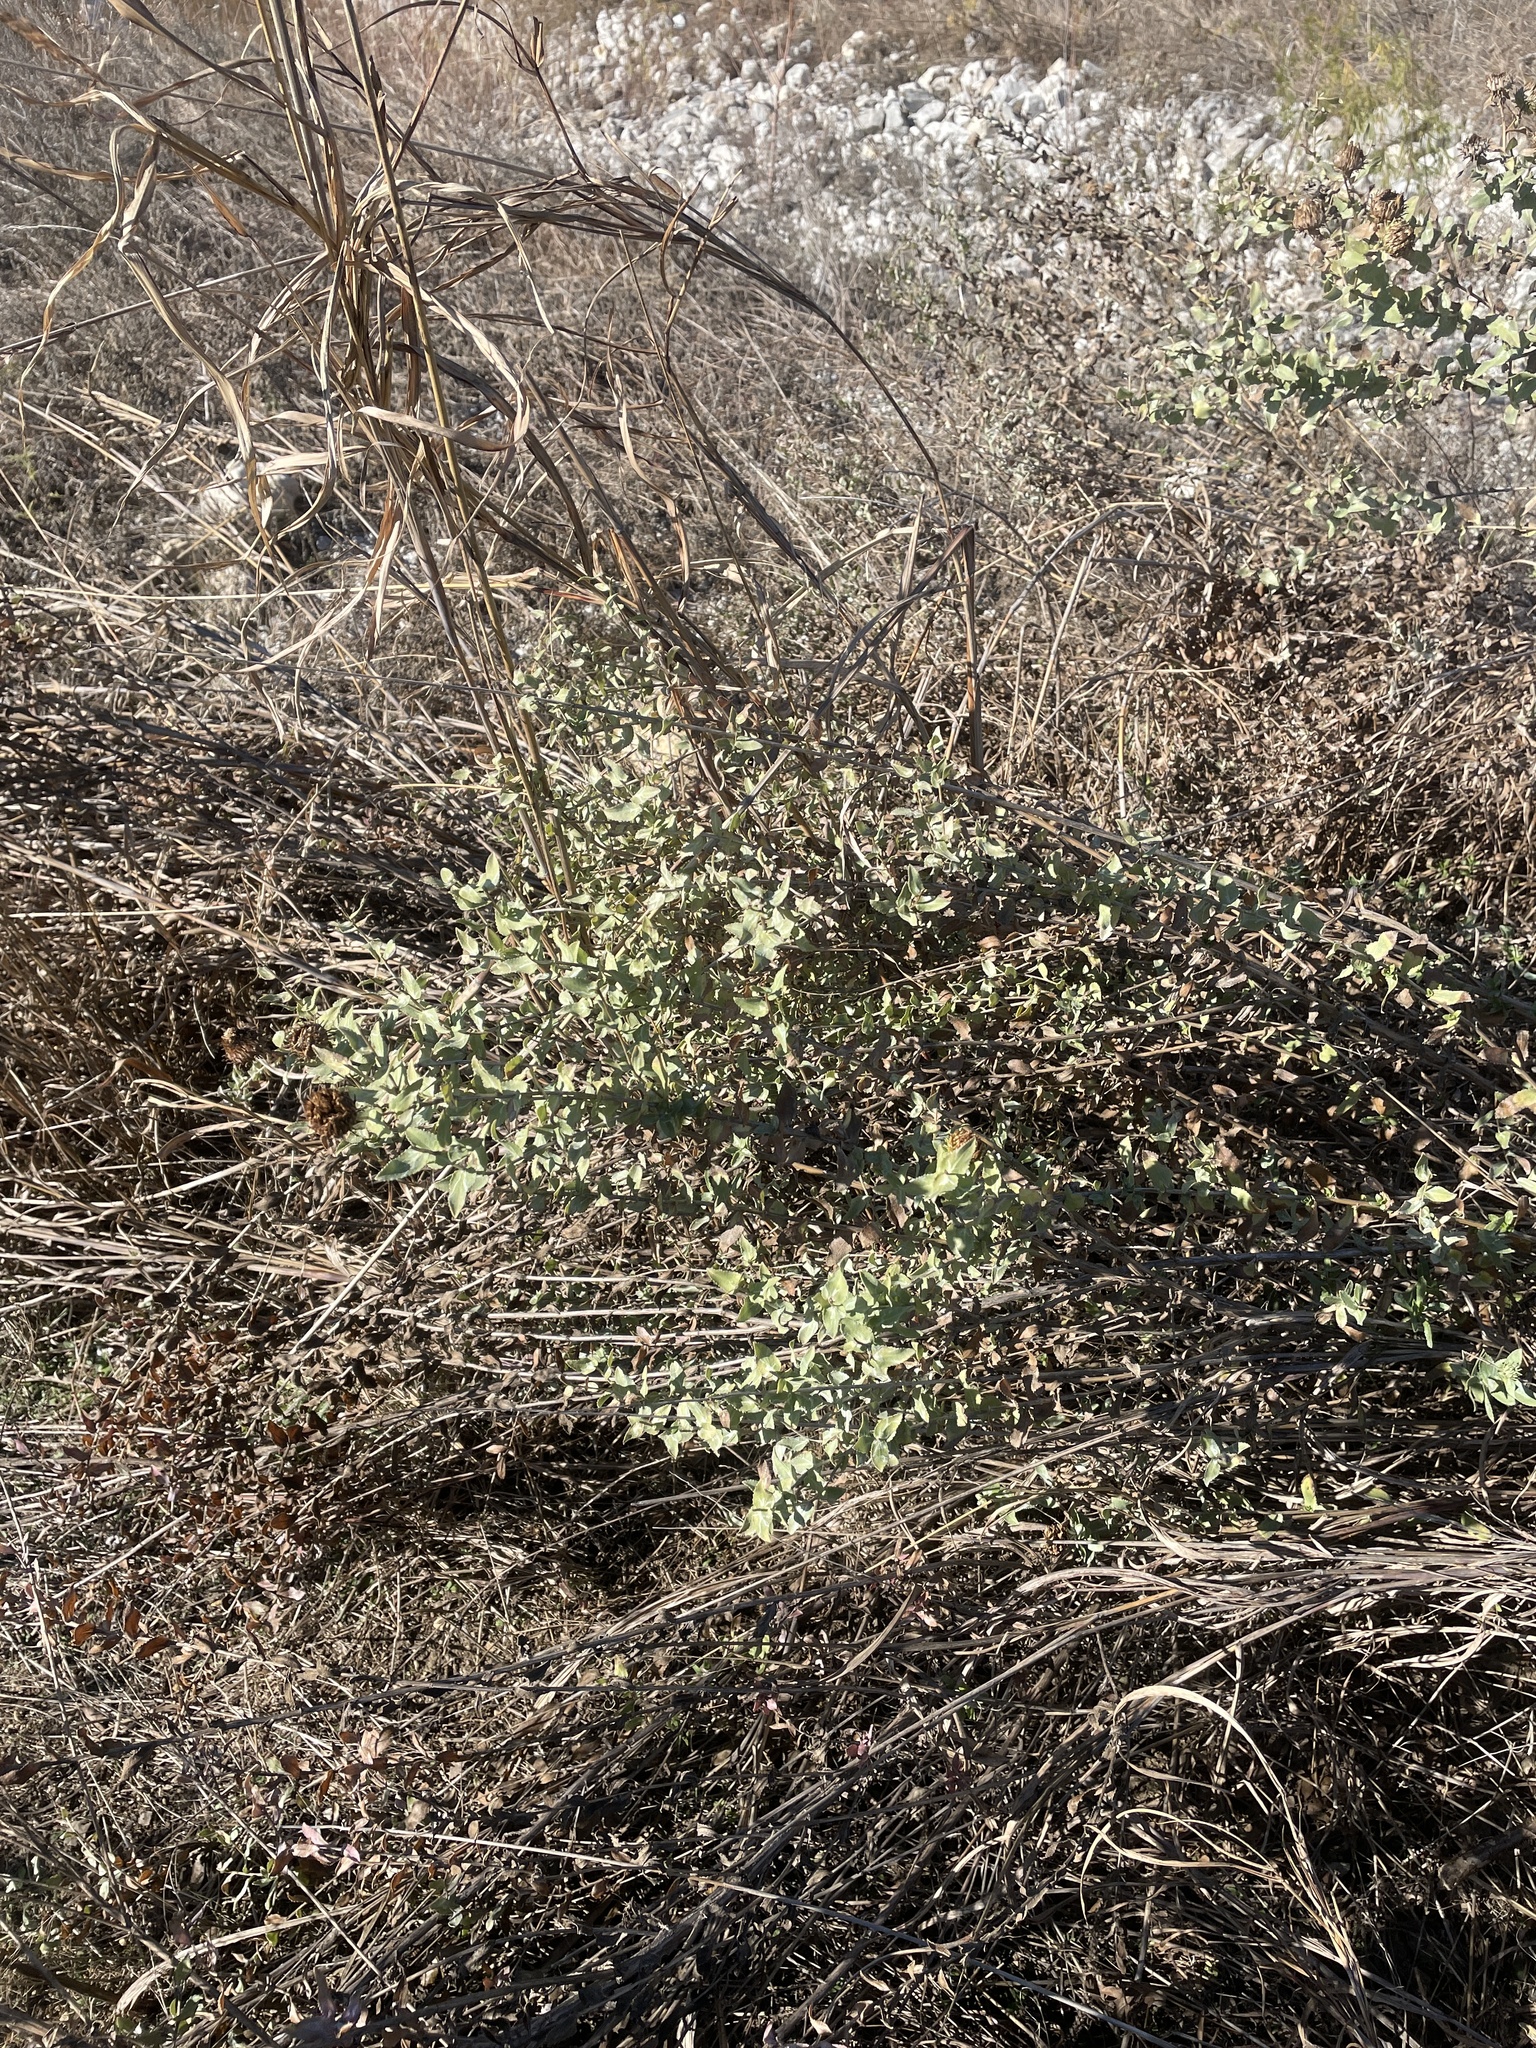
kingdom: Plantae
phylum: Tracheophyta
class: Magnoliopsida
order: Asterales
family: Asteraceae
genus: Grindelia
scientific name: Grindelia nuda
